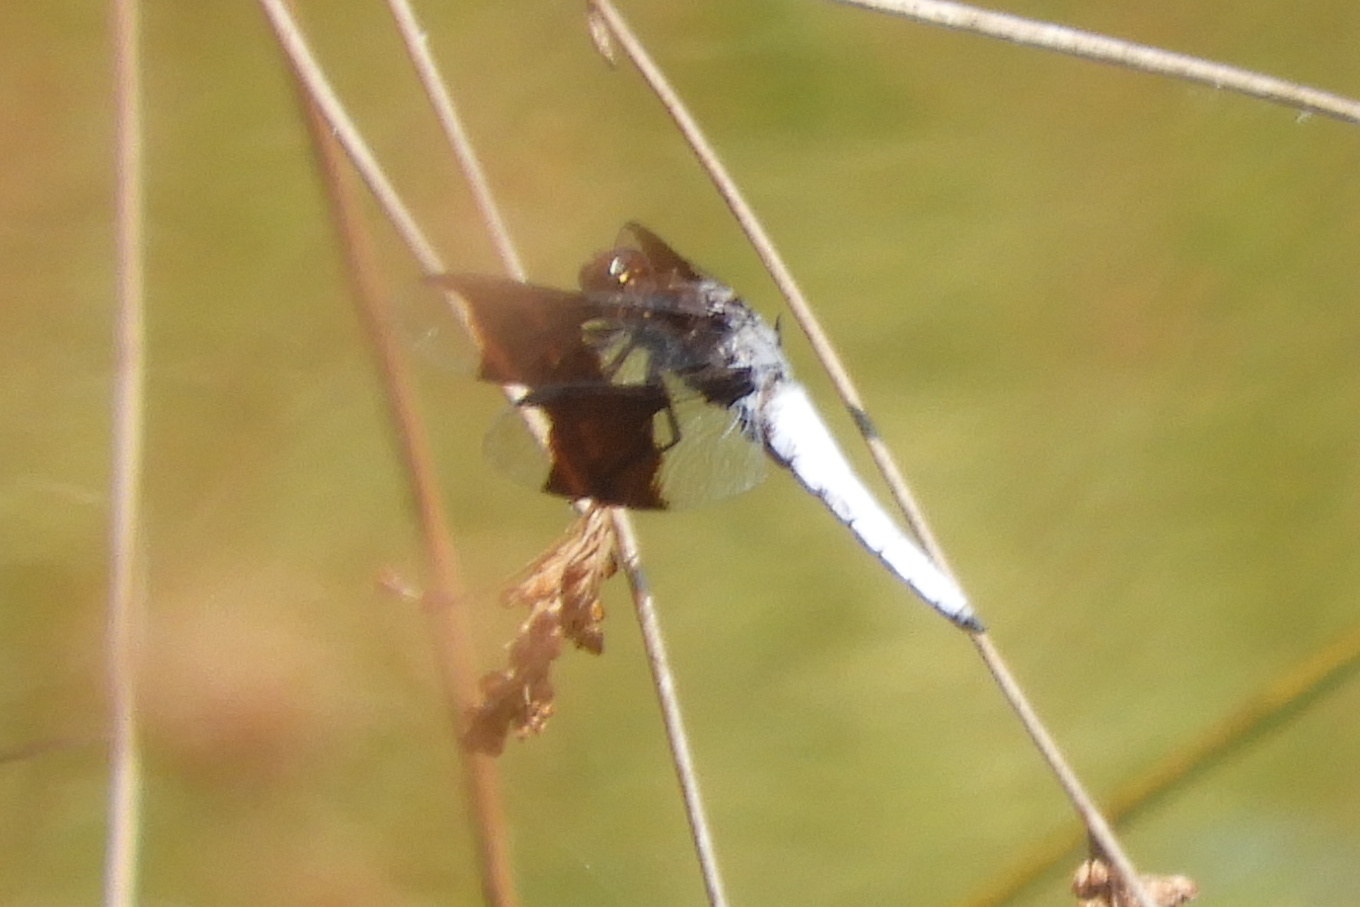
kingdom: Animalia
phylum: Arthropoda
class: Insecta
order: Odonata
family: Libellulidae
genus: Plathemis
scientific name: Plathemis lydia
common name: Common whitetail
